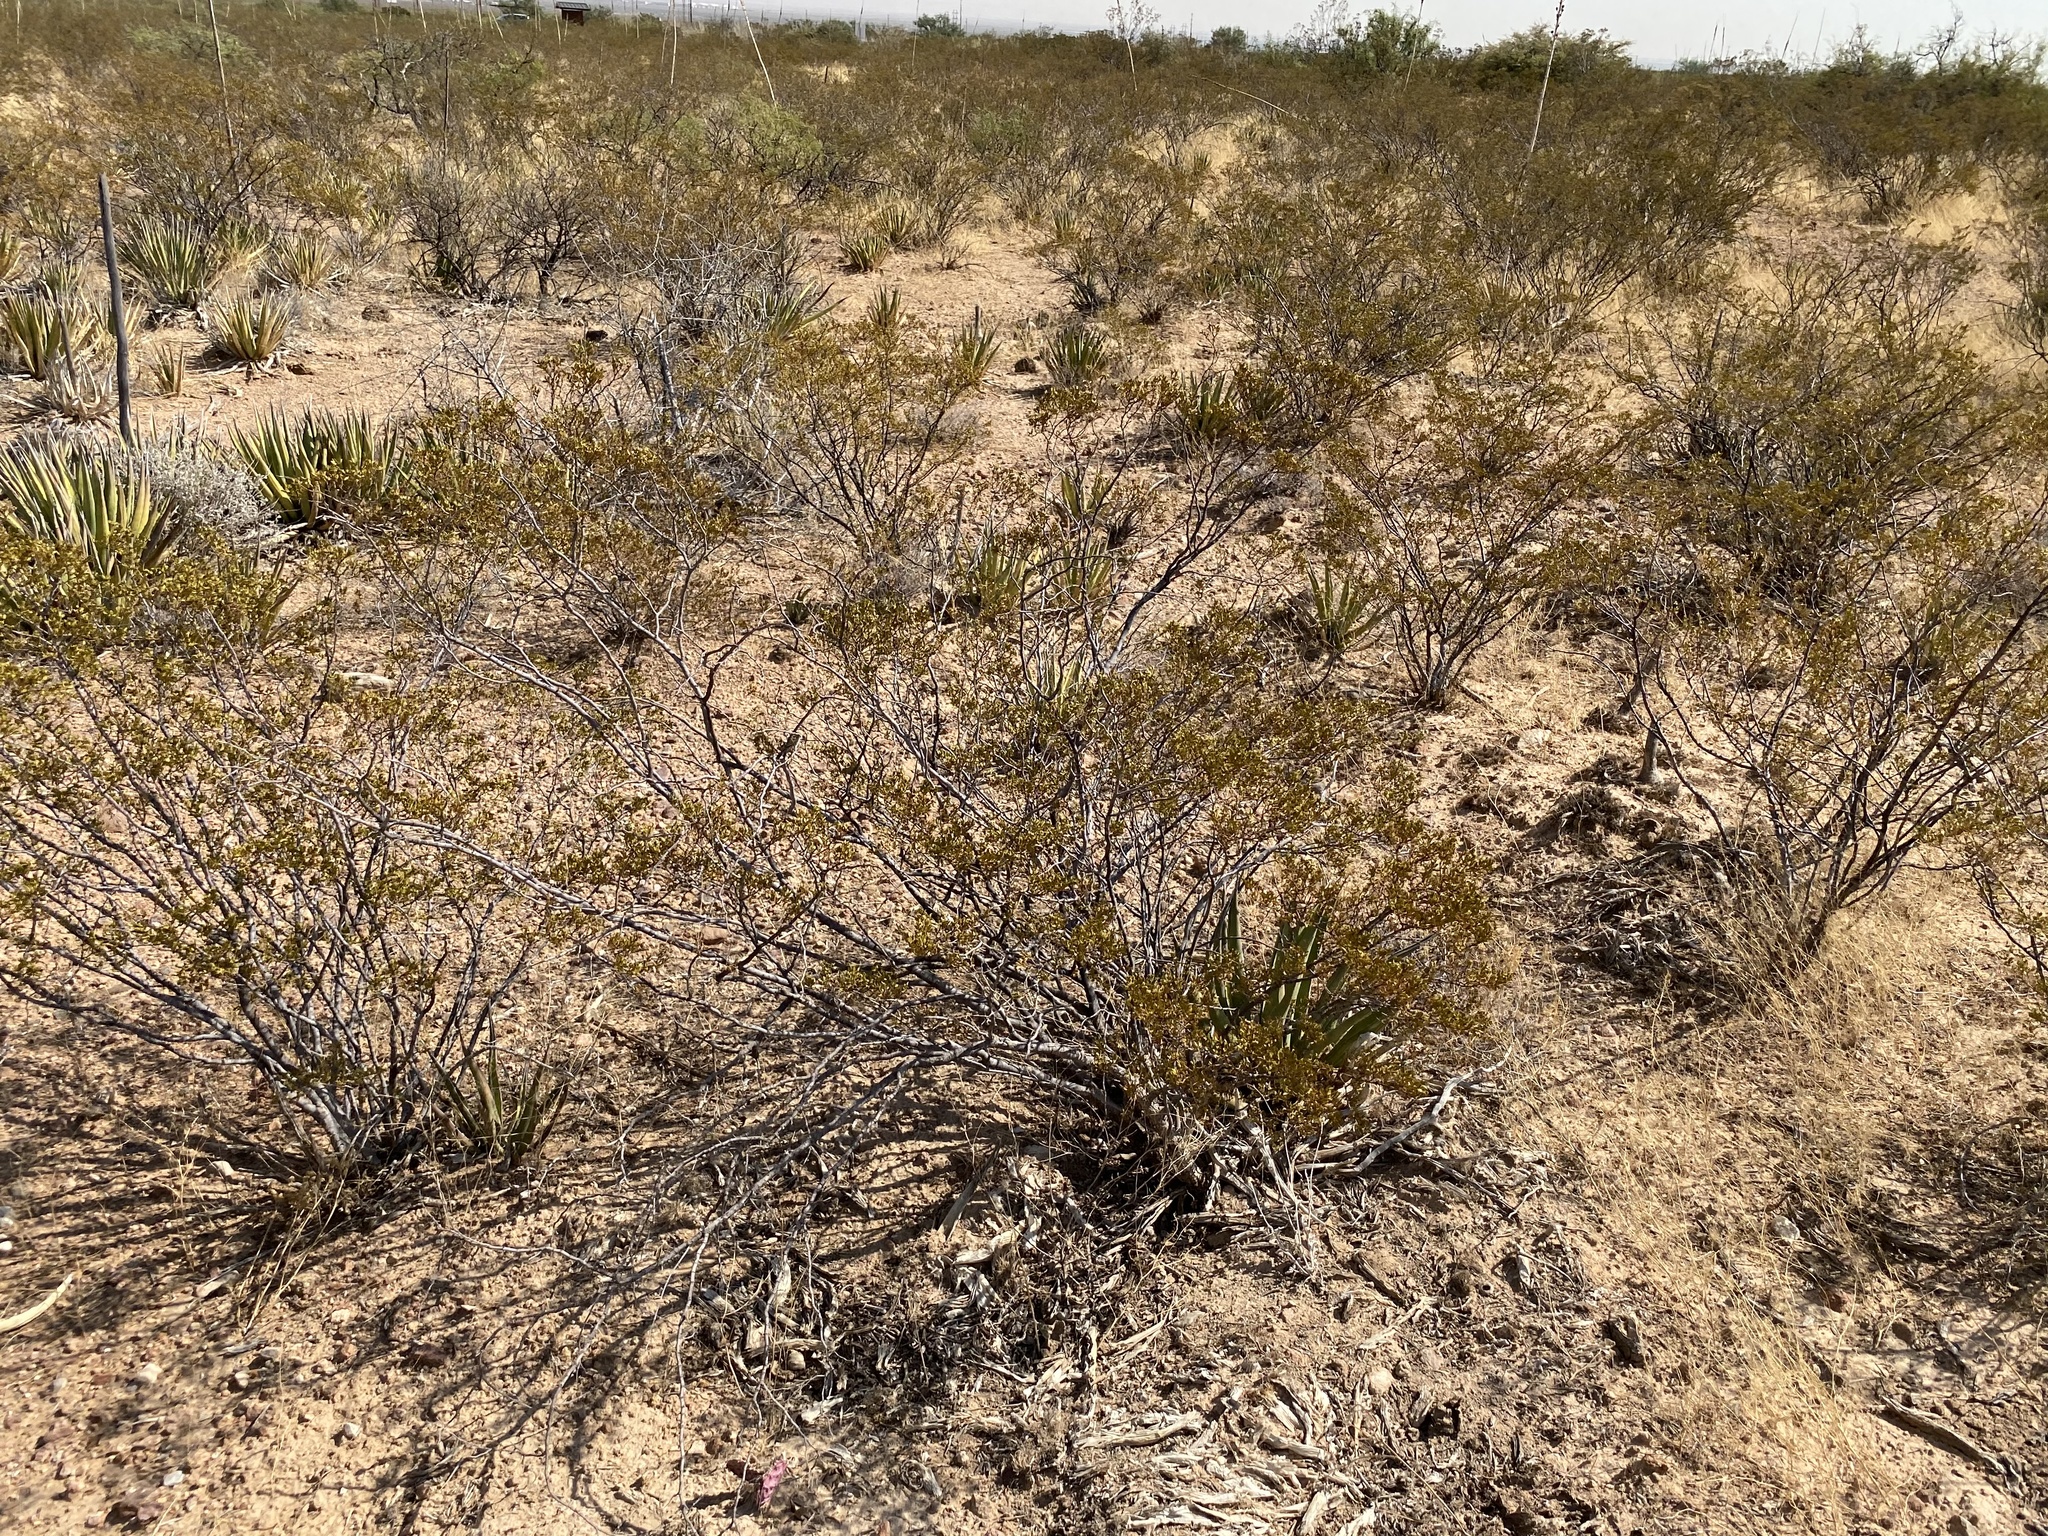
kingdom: Plantae
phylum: Tracheophyta
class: Magnoliopsida
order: Zygophyllales
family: Zygophyllaceae
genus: Larrea
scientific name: Larrea tridentata
